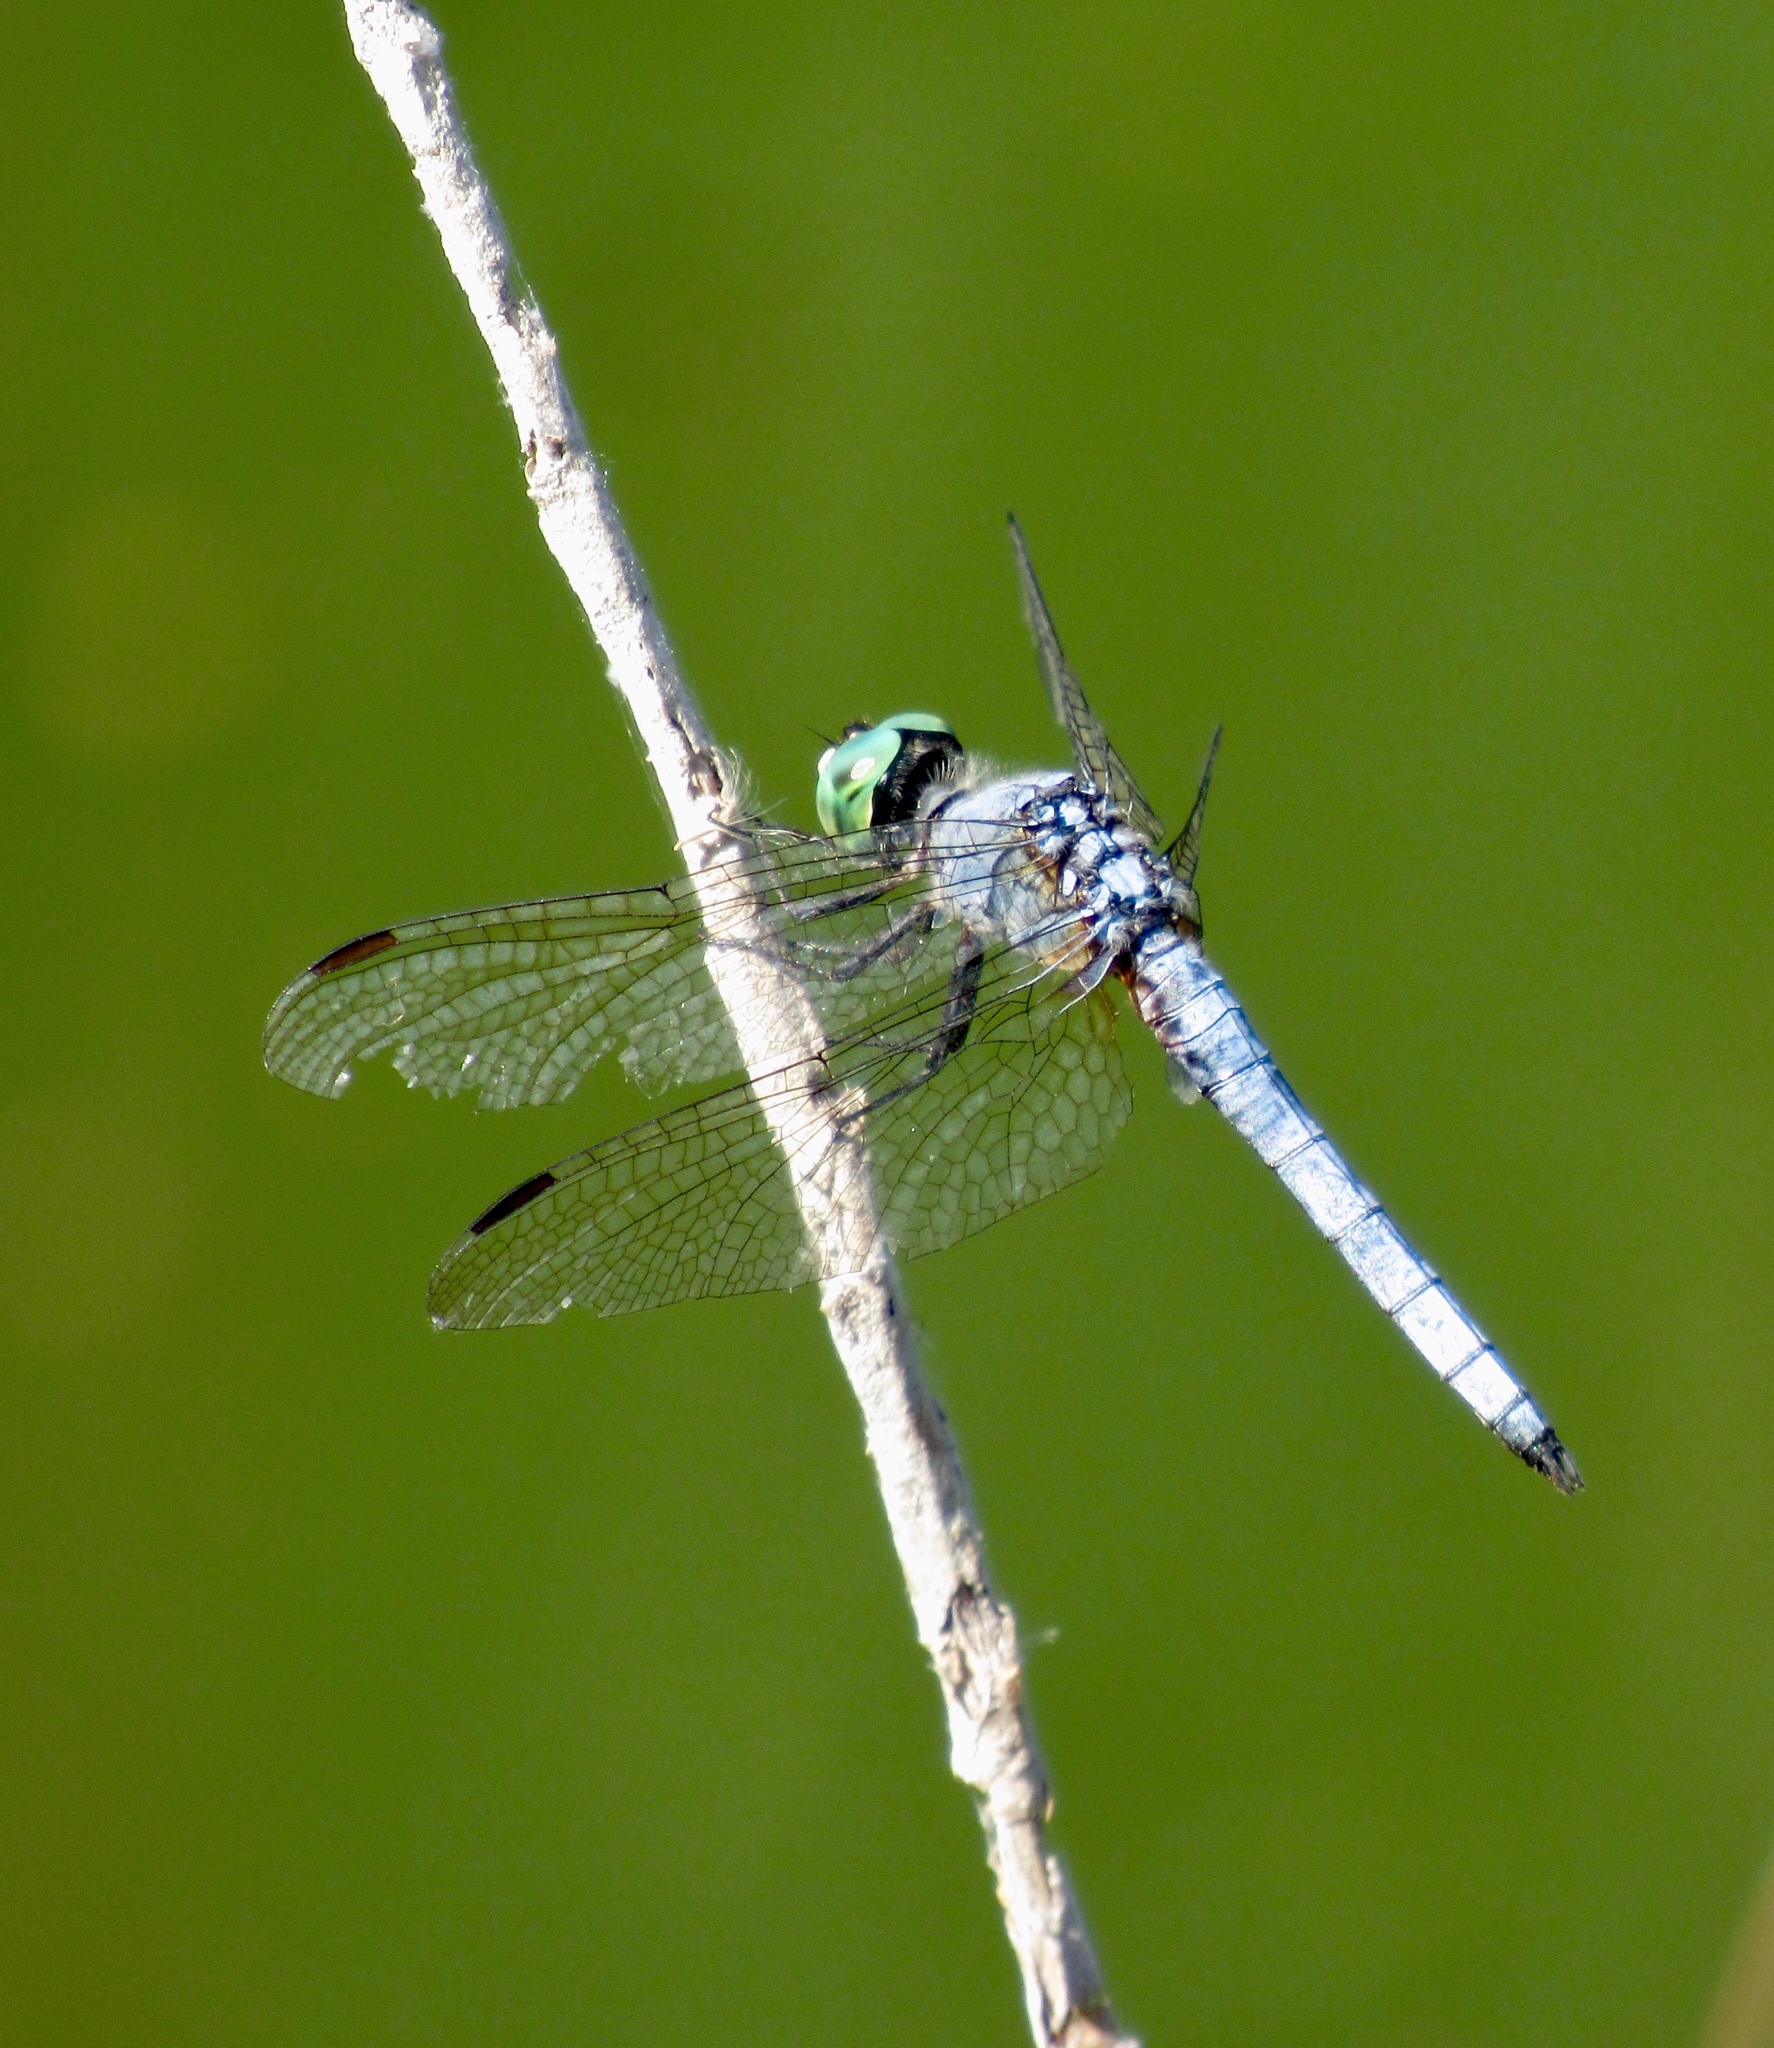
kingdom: Animalia
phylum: Arthropoda
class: Insecta
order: Odonata
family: Libellulidae
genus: Pachydiplax
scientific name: Pachydiplax longipennis
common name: Blue dasher
